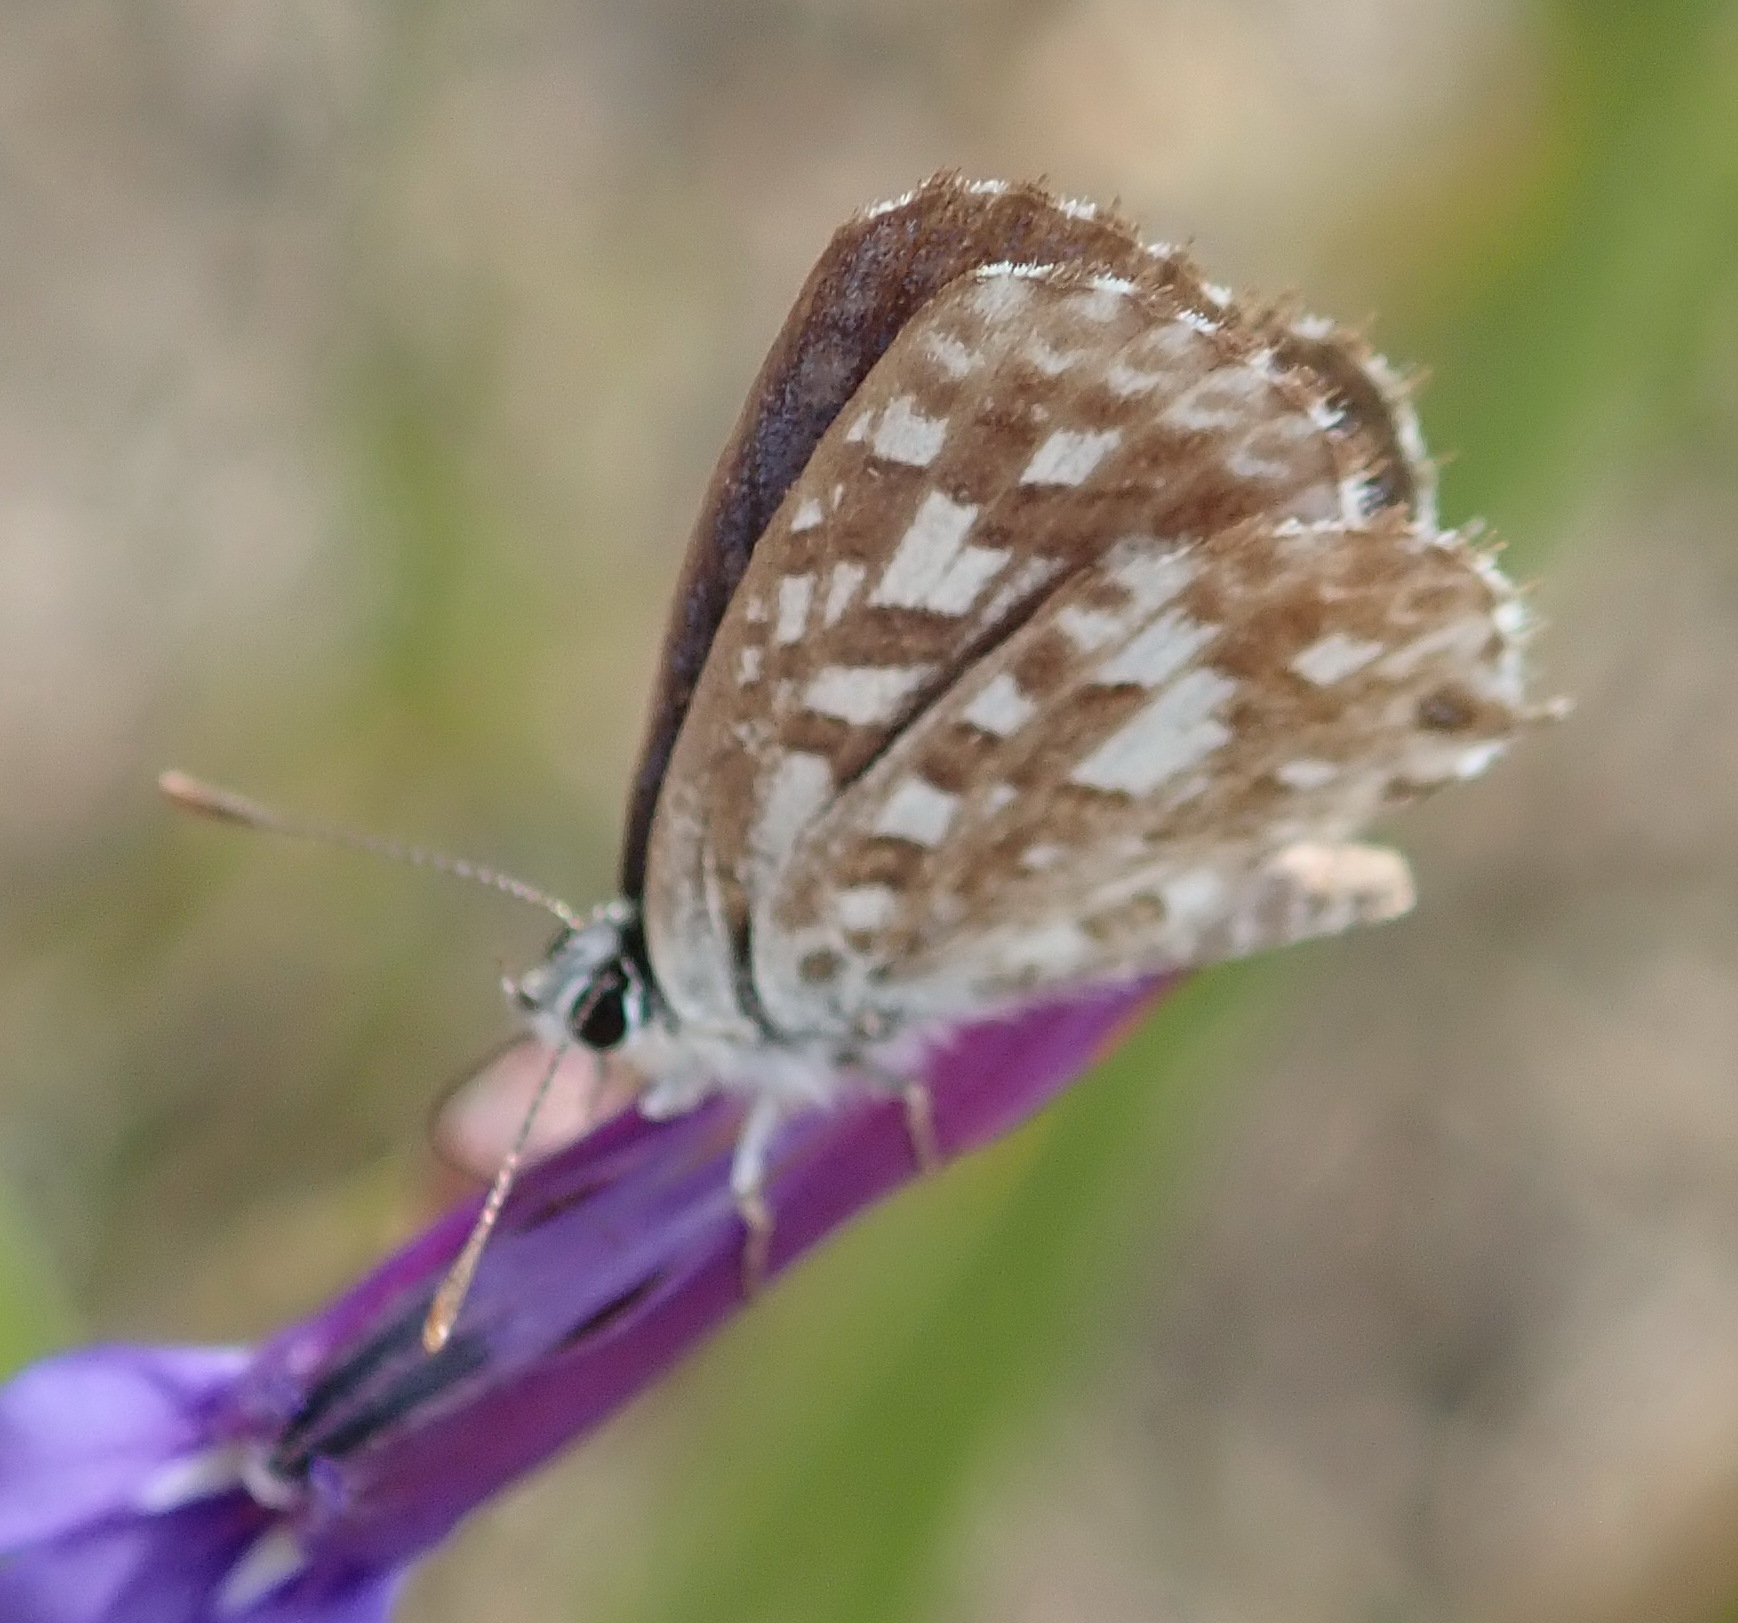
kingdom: Animalia
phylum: Arthropoda
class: Insecta
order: Lepidoptera
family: Lycaenidae
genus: Tarucus
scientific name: Tarucus thespis
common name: Vivid dotted blue
